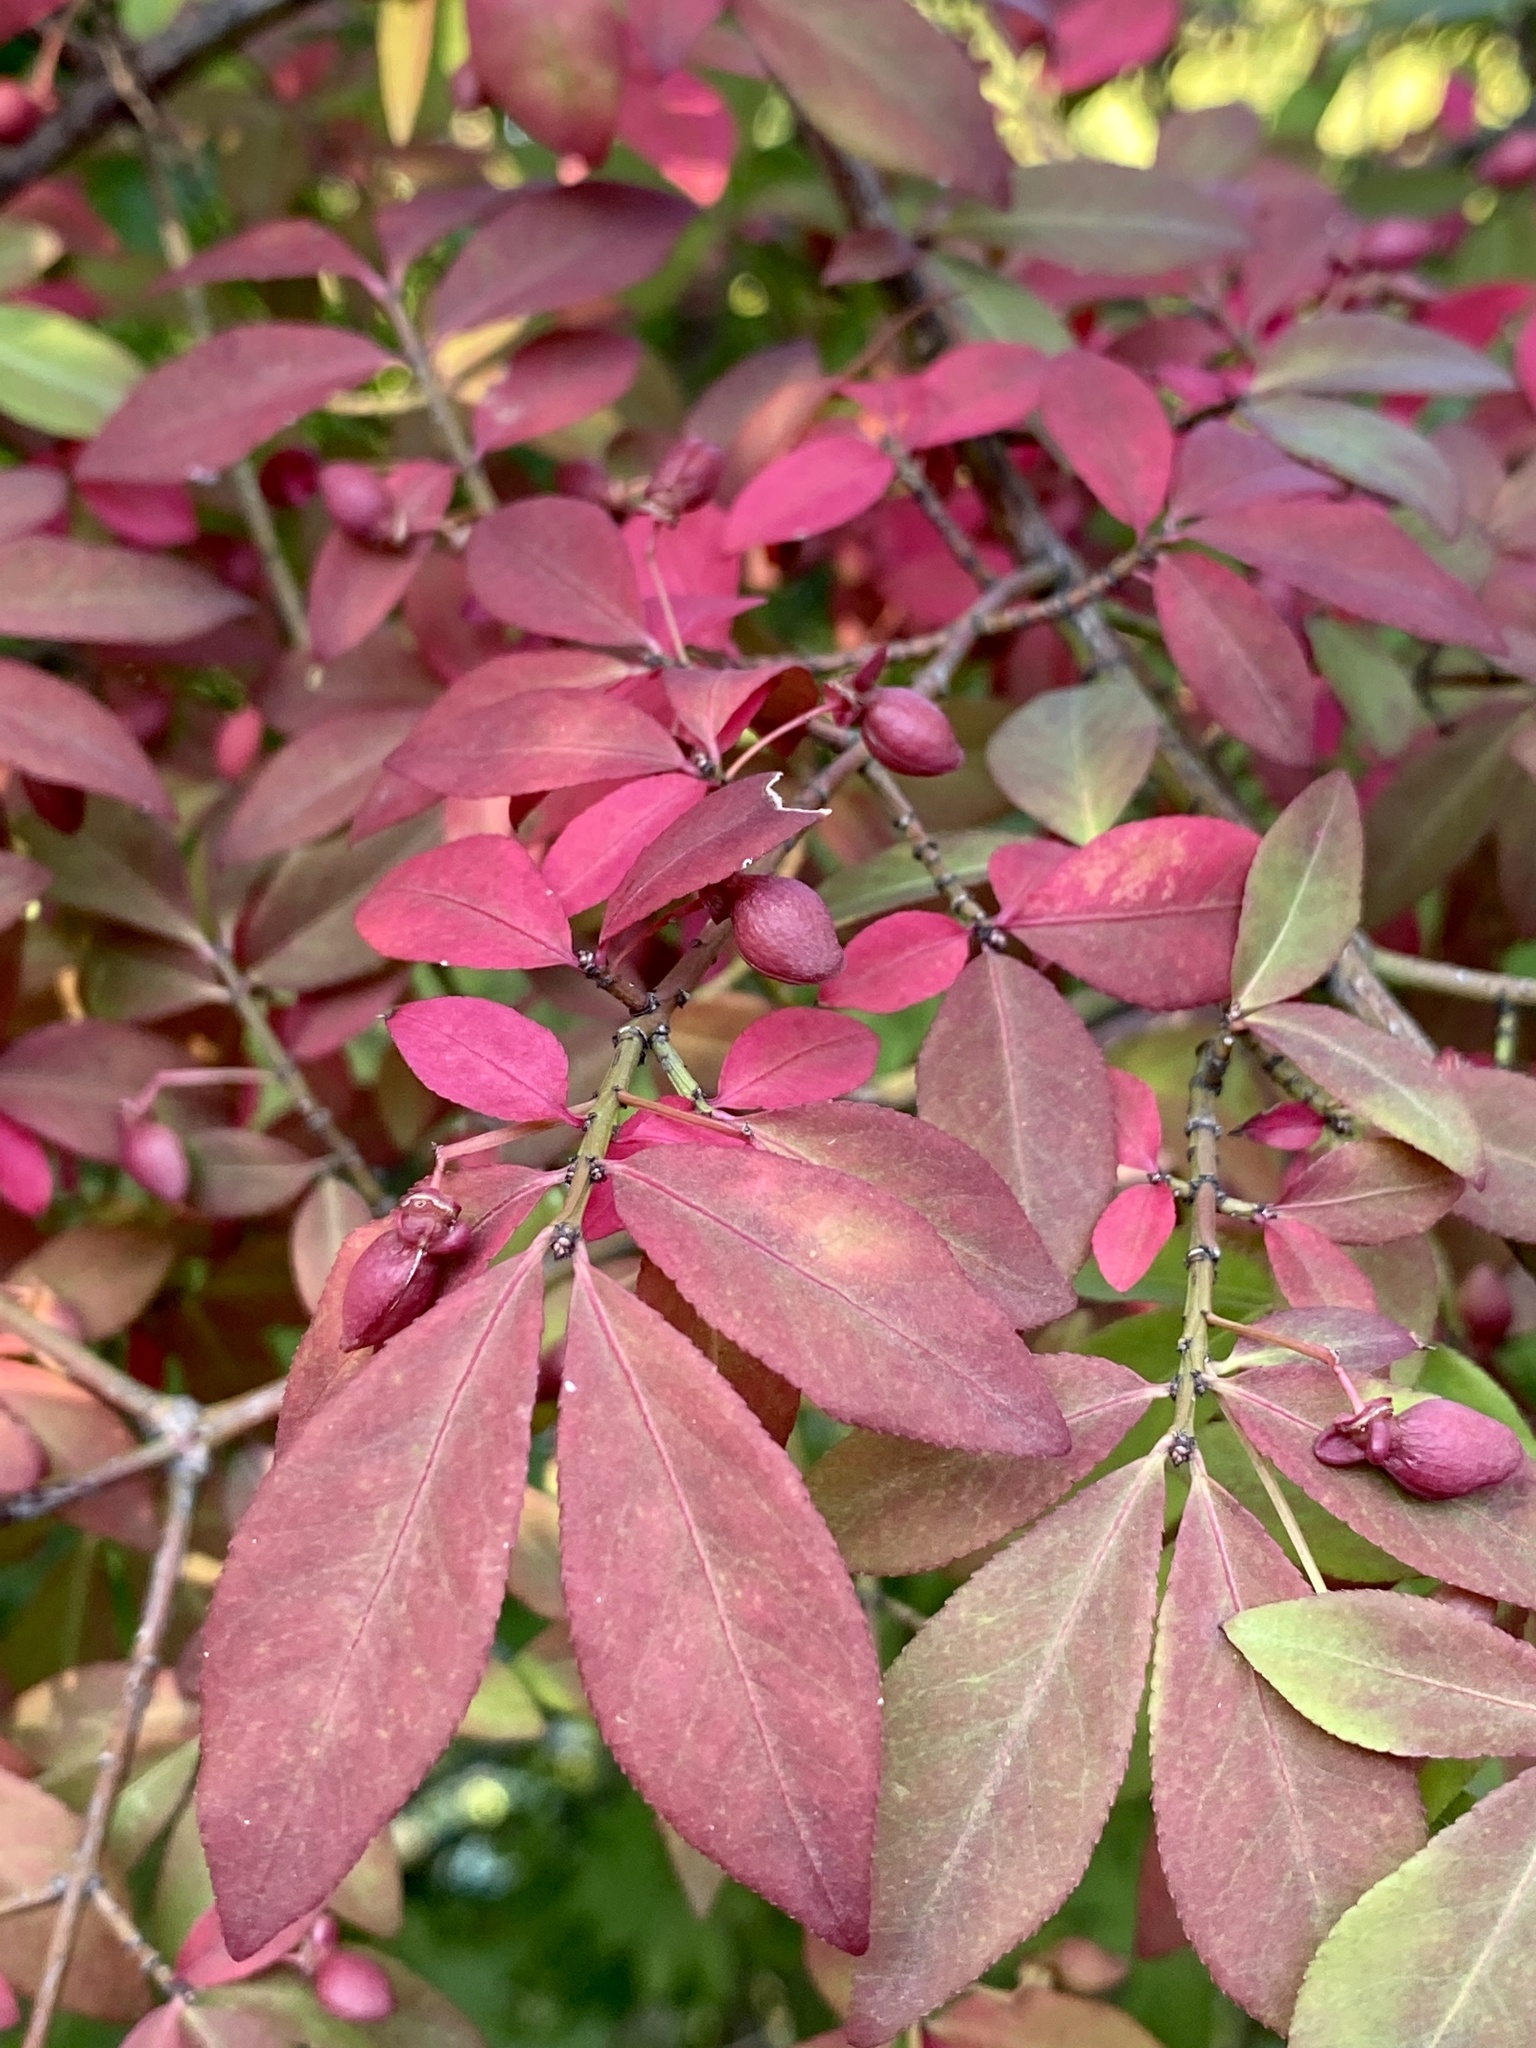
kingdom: Plantae
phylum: Tracheophyta
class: Magnoliopsida
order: Celastrales
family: Celastraceae
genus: Euonymus
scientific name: Euonymus alatus
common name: Winged euonymus
